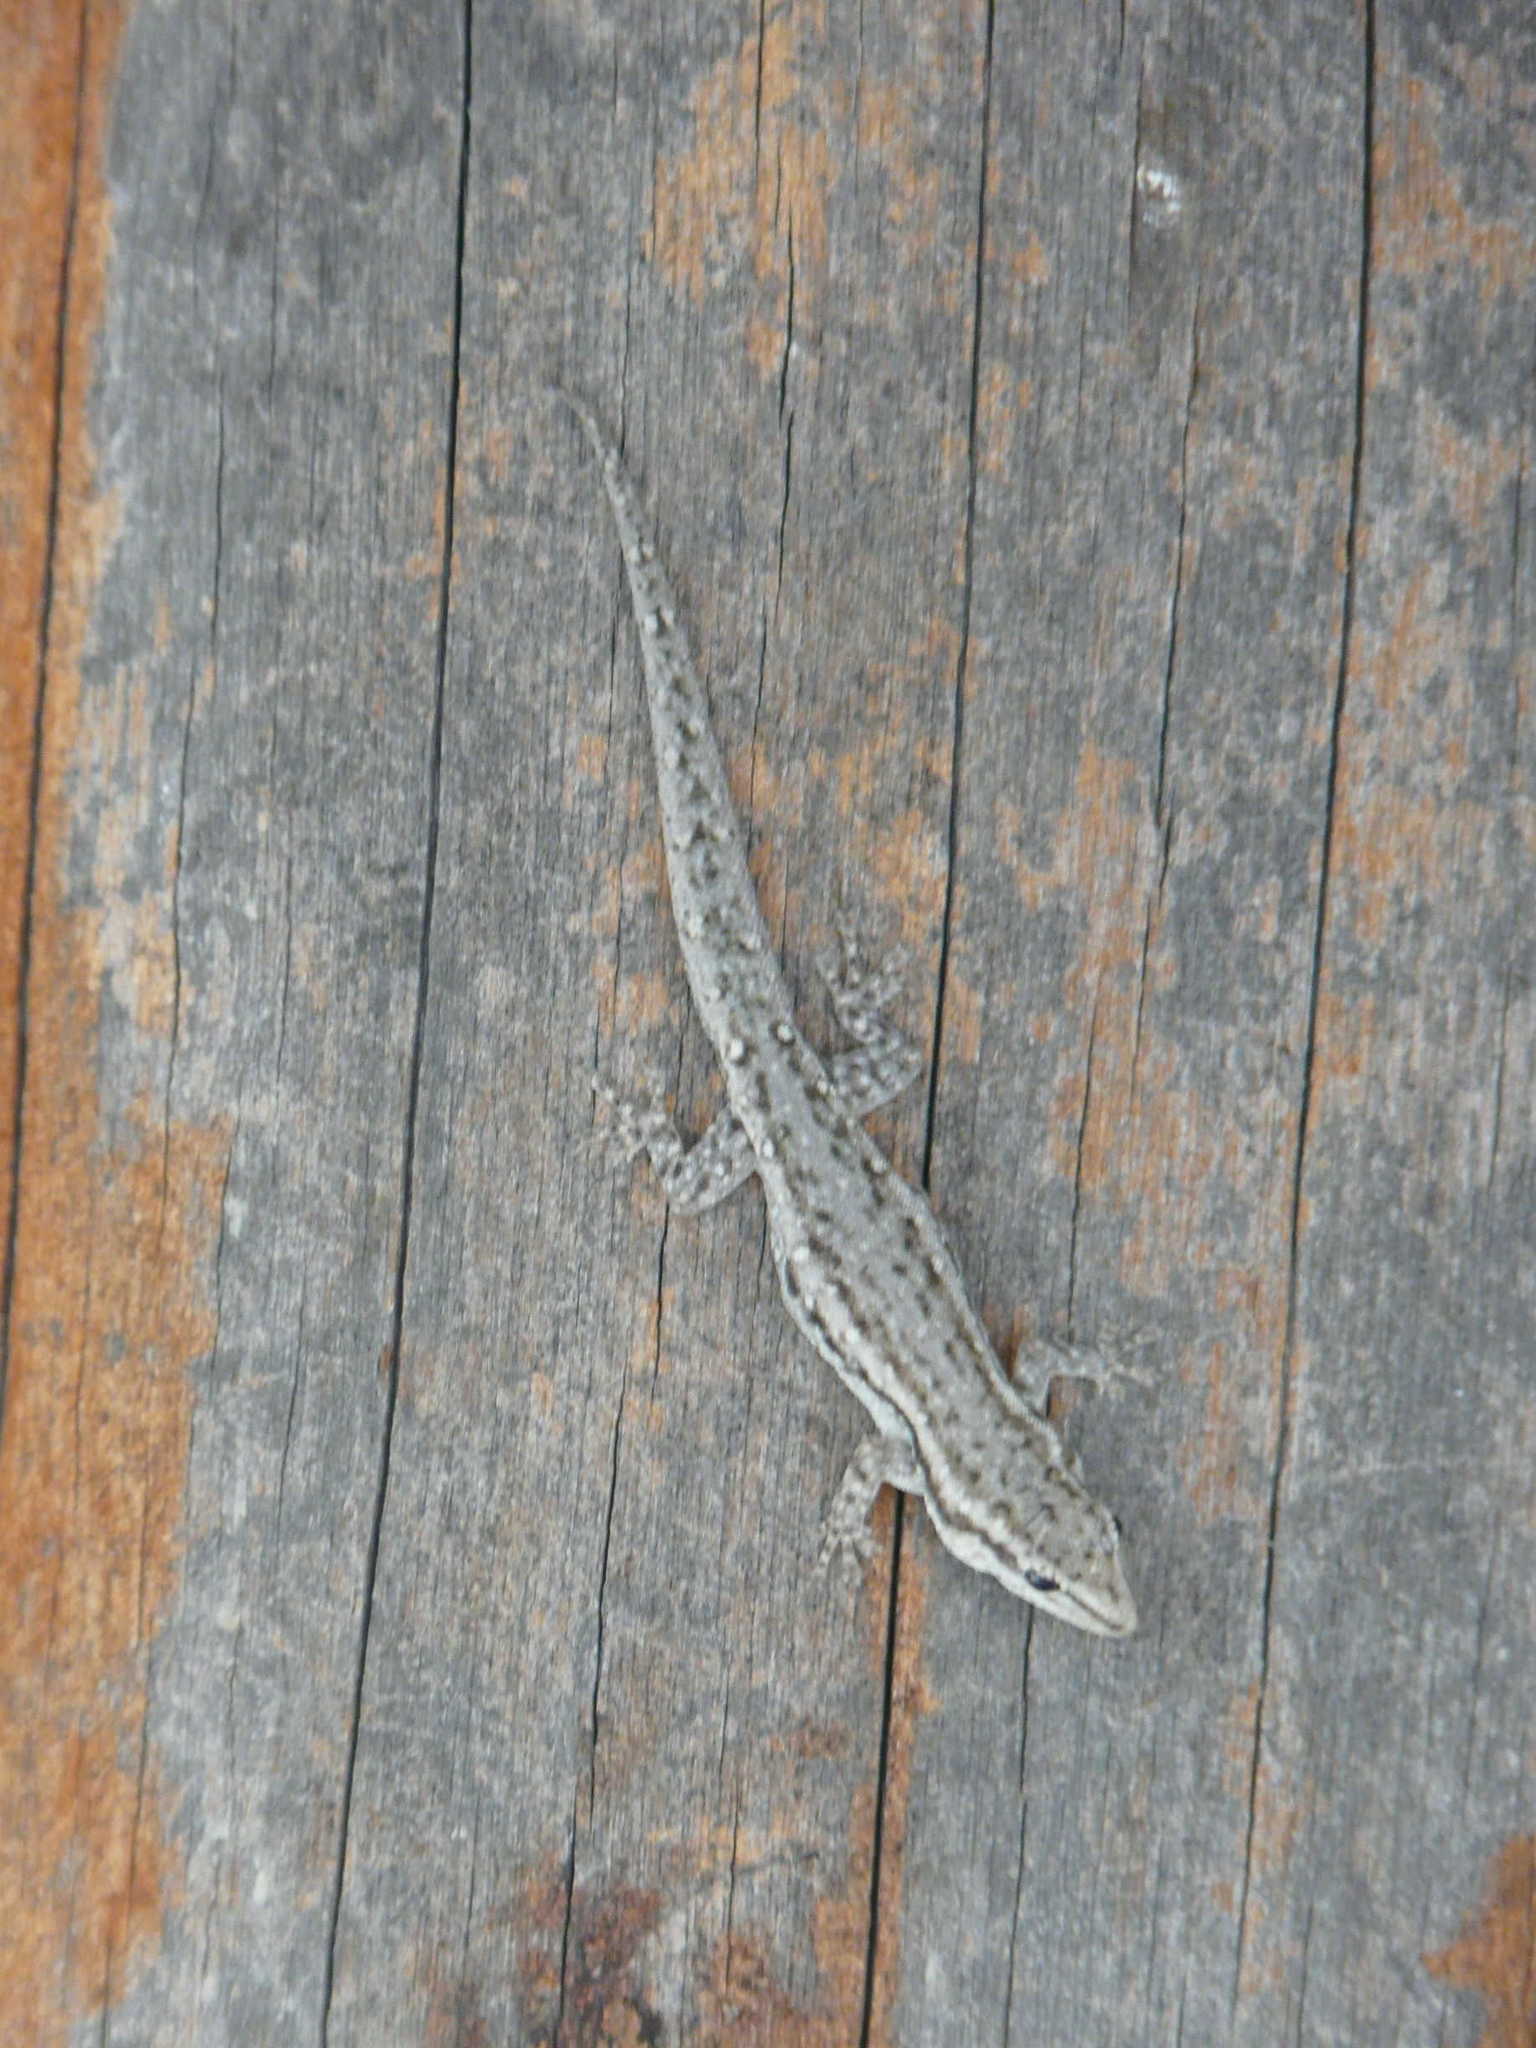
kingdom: Animalia
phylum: Chordata
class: Squamata
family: Gekkonidae
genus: Lygodactylus
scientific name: Lygodactylus capensis
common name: Cape dwarf gecko
